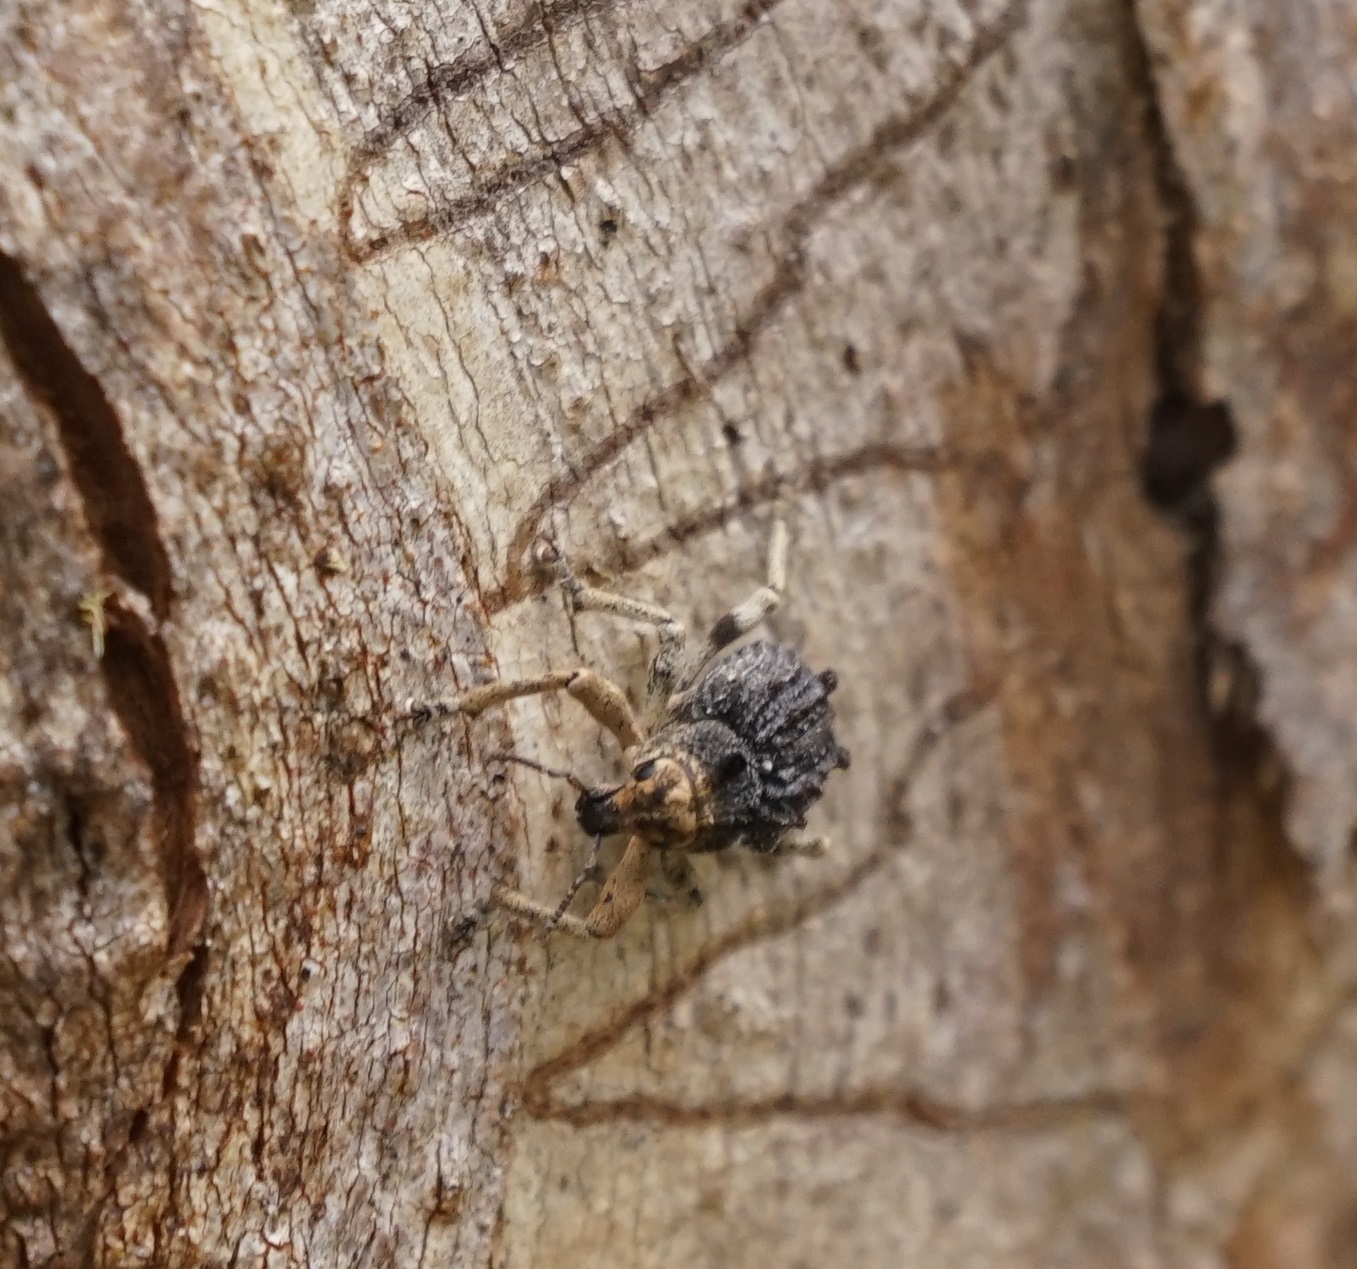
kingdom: Animalia
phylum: Arthropoda
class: Insecta
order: Coleoptera
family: Curculionidae
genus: Aades
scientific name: Aades cultratus
